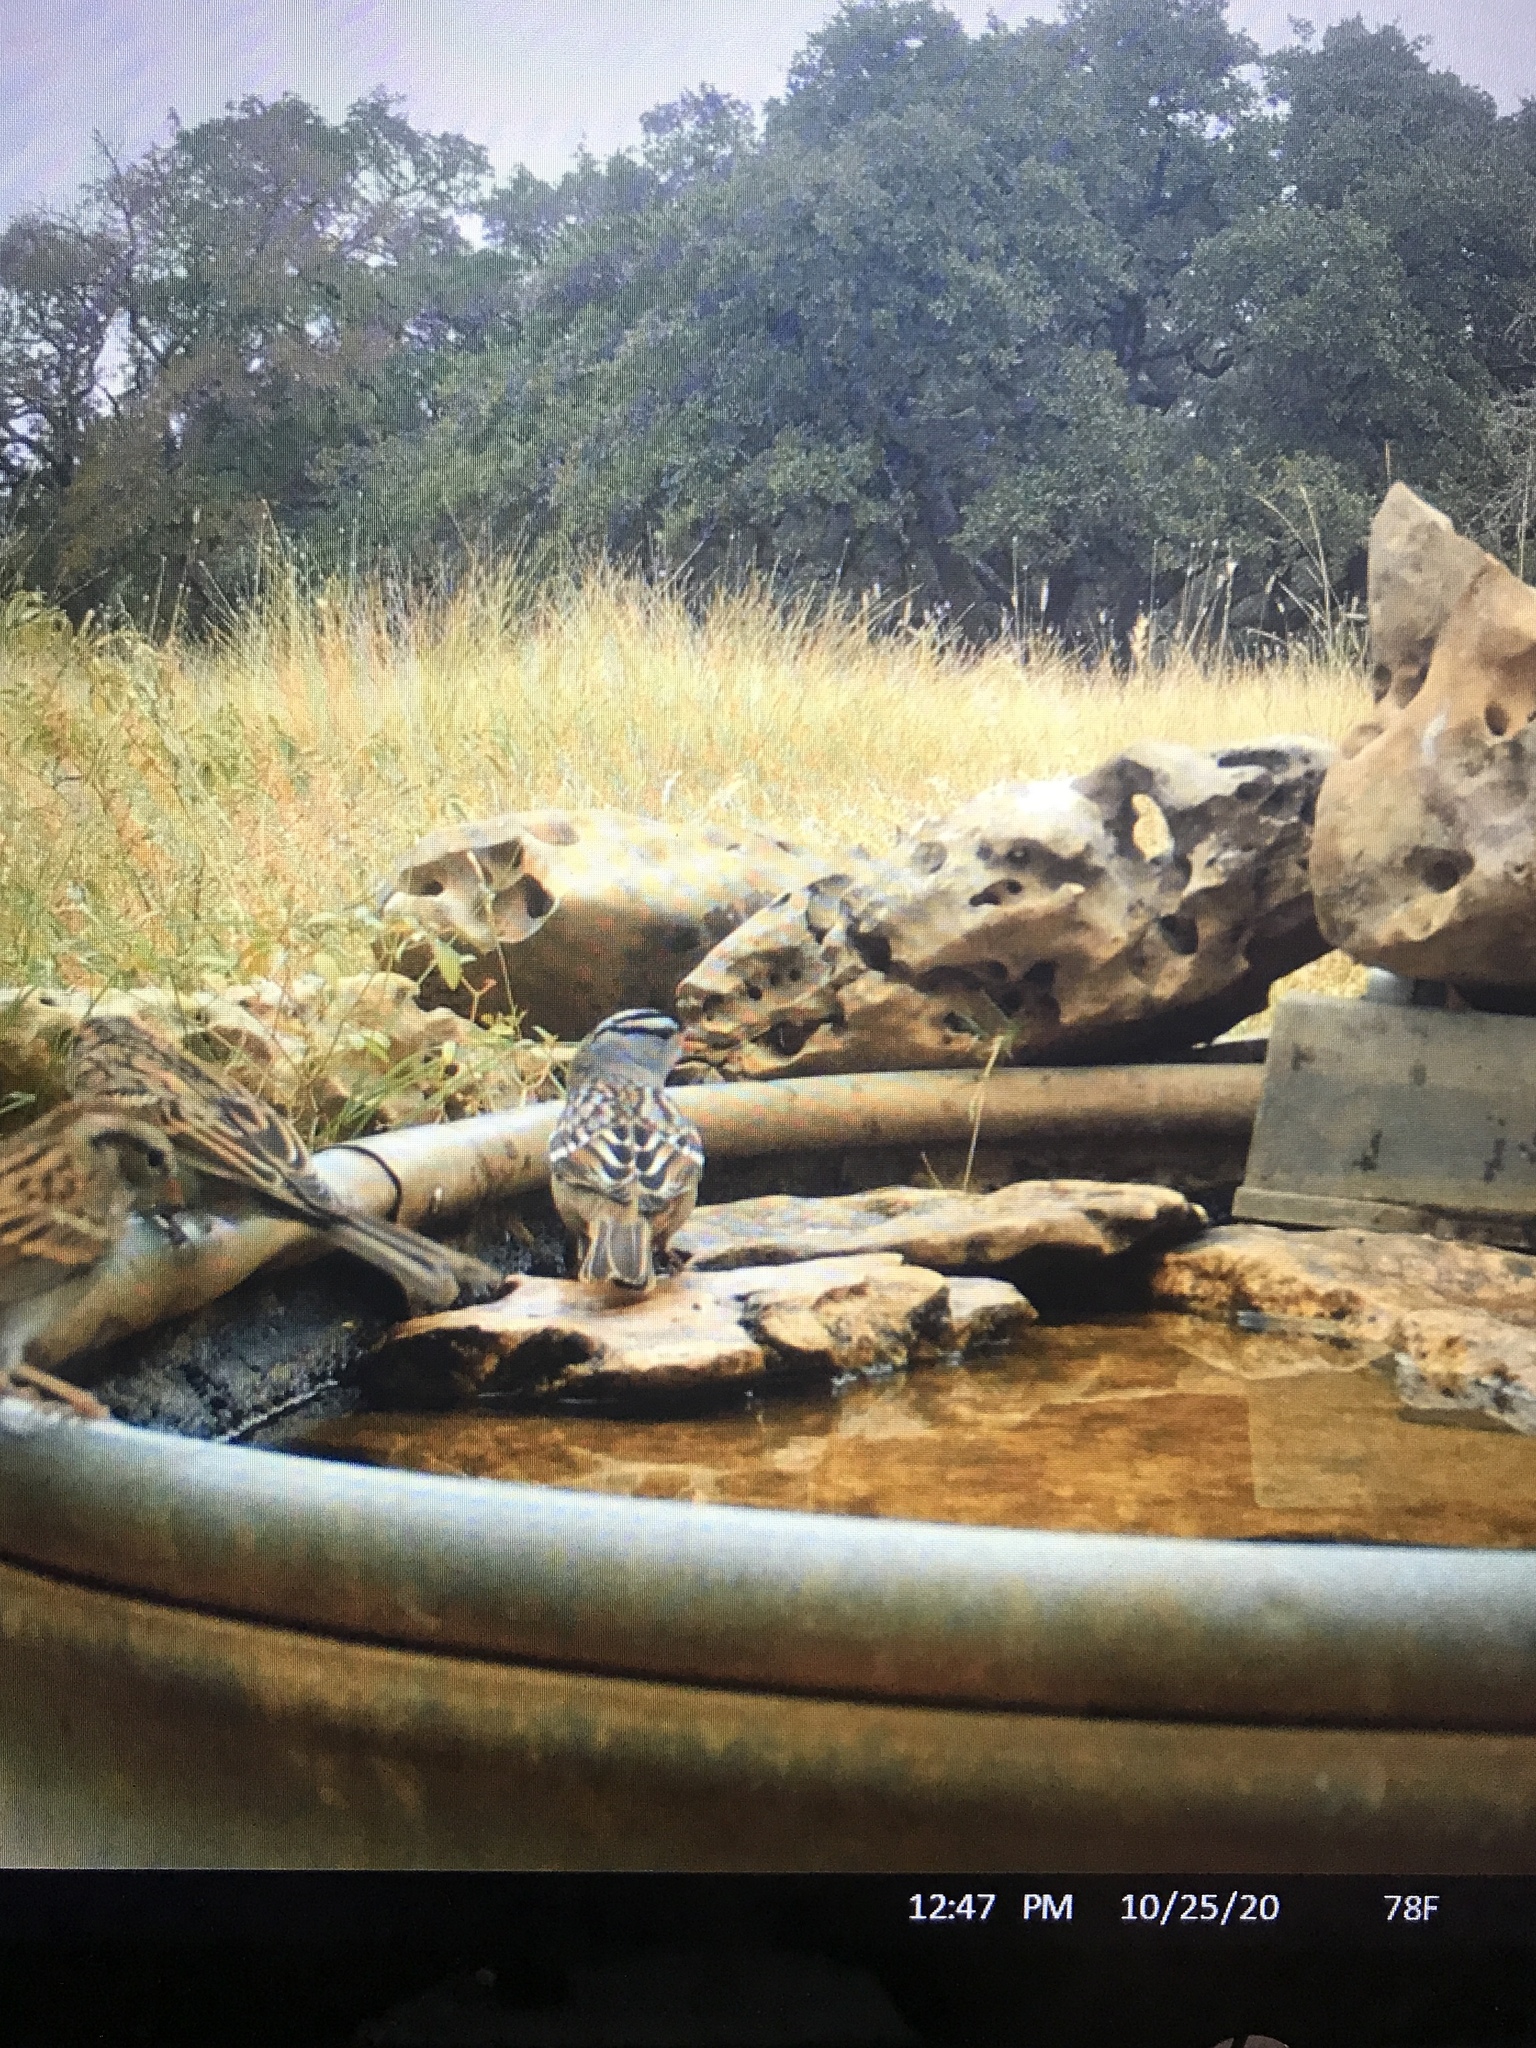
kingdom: Animalia
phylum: Chordata
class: Aves
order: Passeriformes
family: Passerellidae
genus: Zonotrichia
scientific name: Zonotrichia leucophrys
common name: White-crowned sparrow
